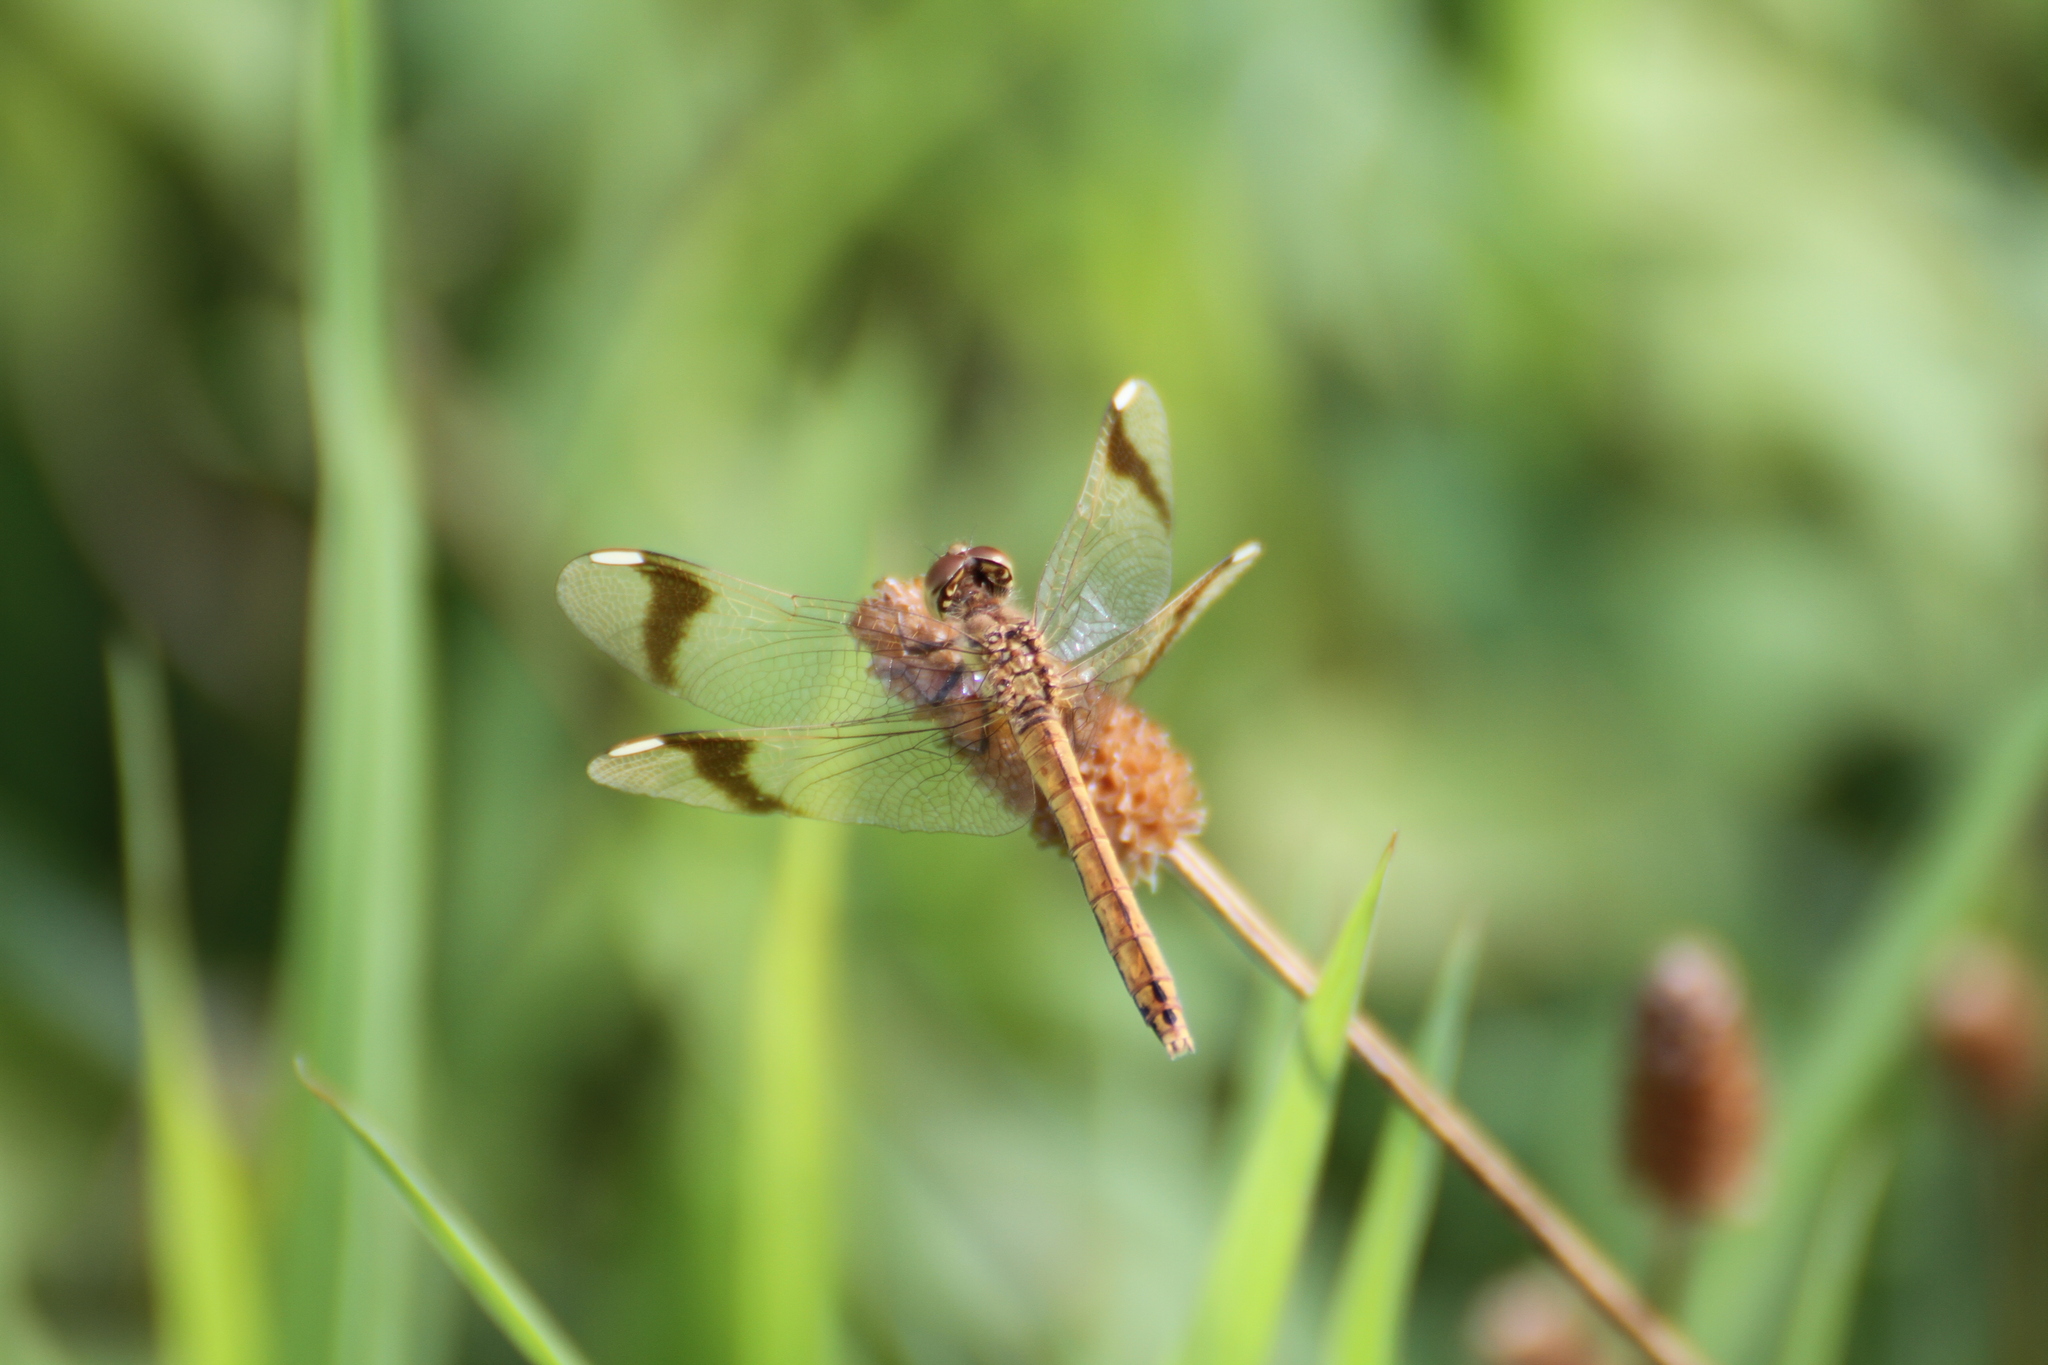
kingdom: Animalia
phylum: Arthropoda
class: Insecta
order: Odonata
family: Libellulidae
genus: Sympetrum
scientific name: Sympetrum pedemontanum
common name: Banded darter
